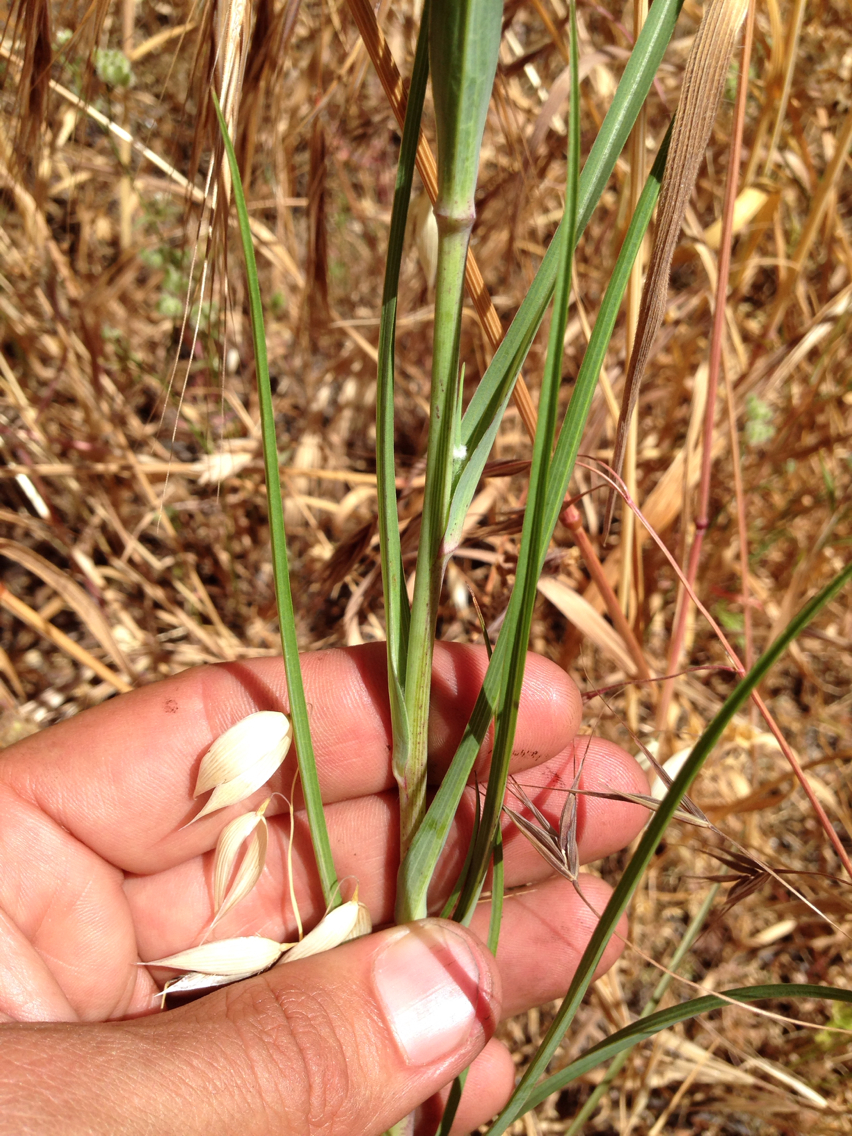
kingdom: Plantae
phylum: Tracheophyta
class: Magnoliopsida
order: Asterales
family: Asteraceae
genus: Tragopogon
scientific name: Tragopogon porrifolius
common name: Salsify
